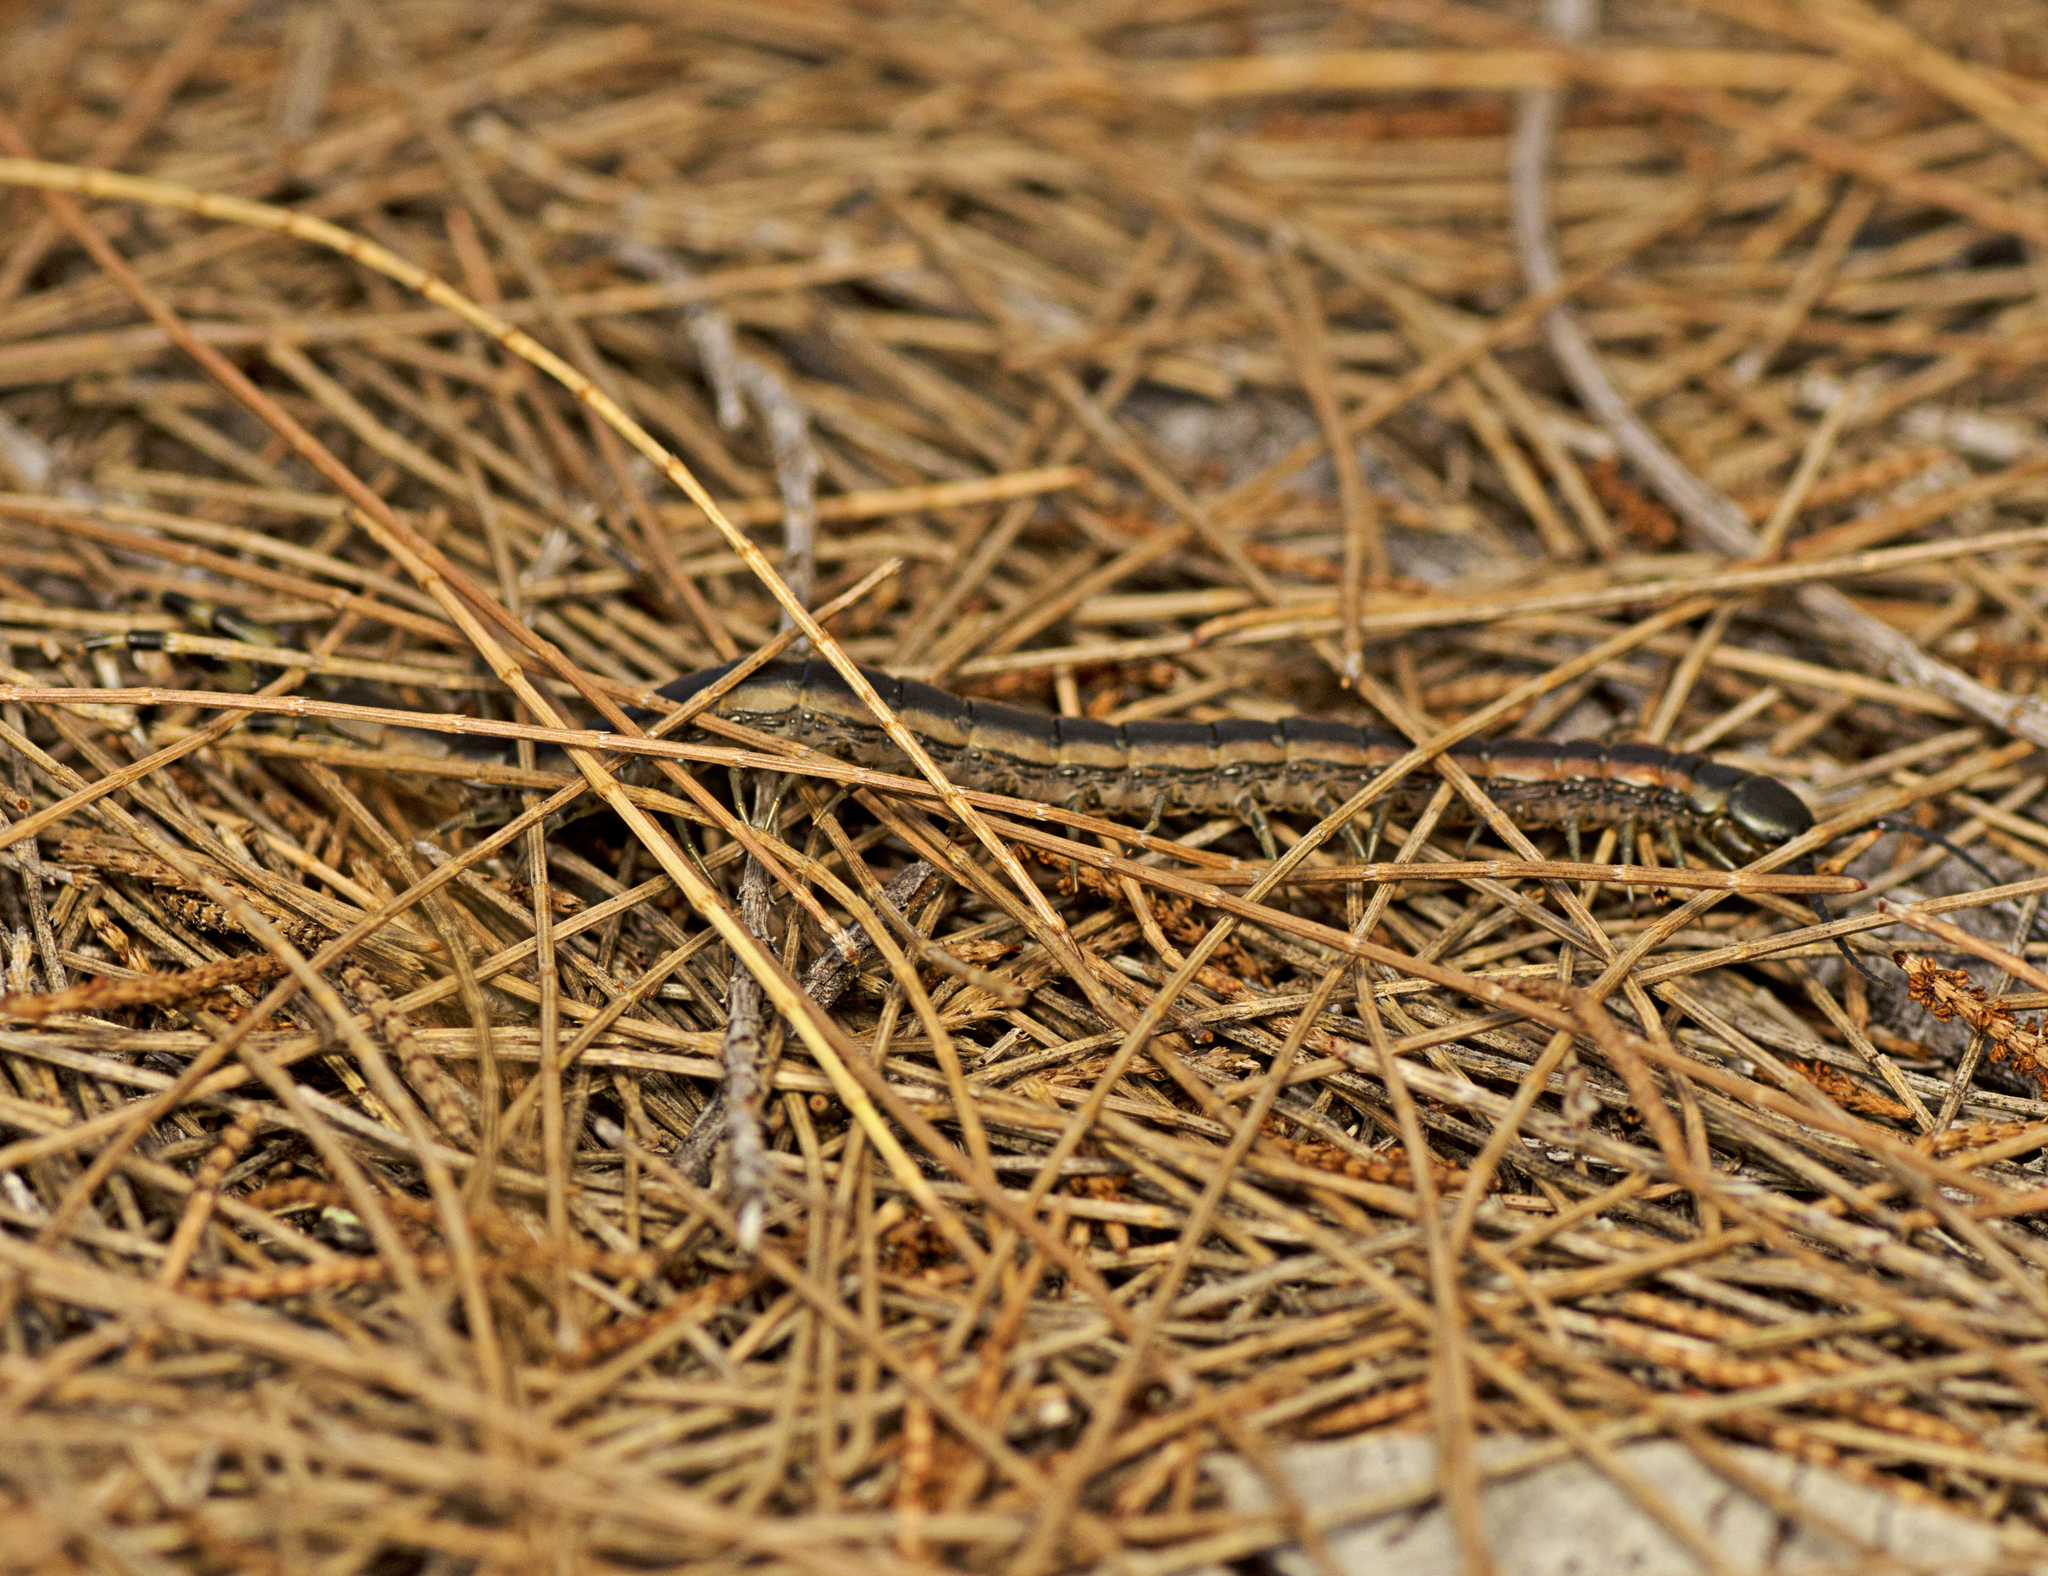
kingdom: Animalia
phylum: Arthropoda
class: Chilopoda
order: Scolopendromorpha
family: Scolopendridae
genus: Scolopendra
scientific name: Scolopendra laeta
